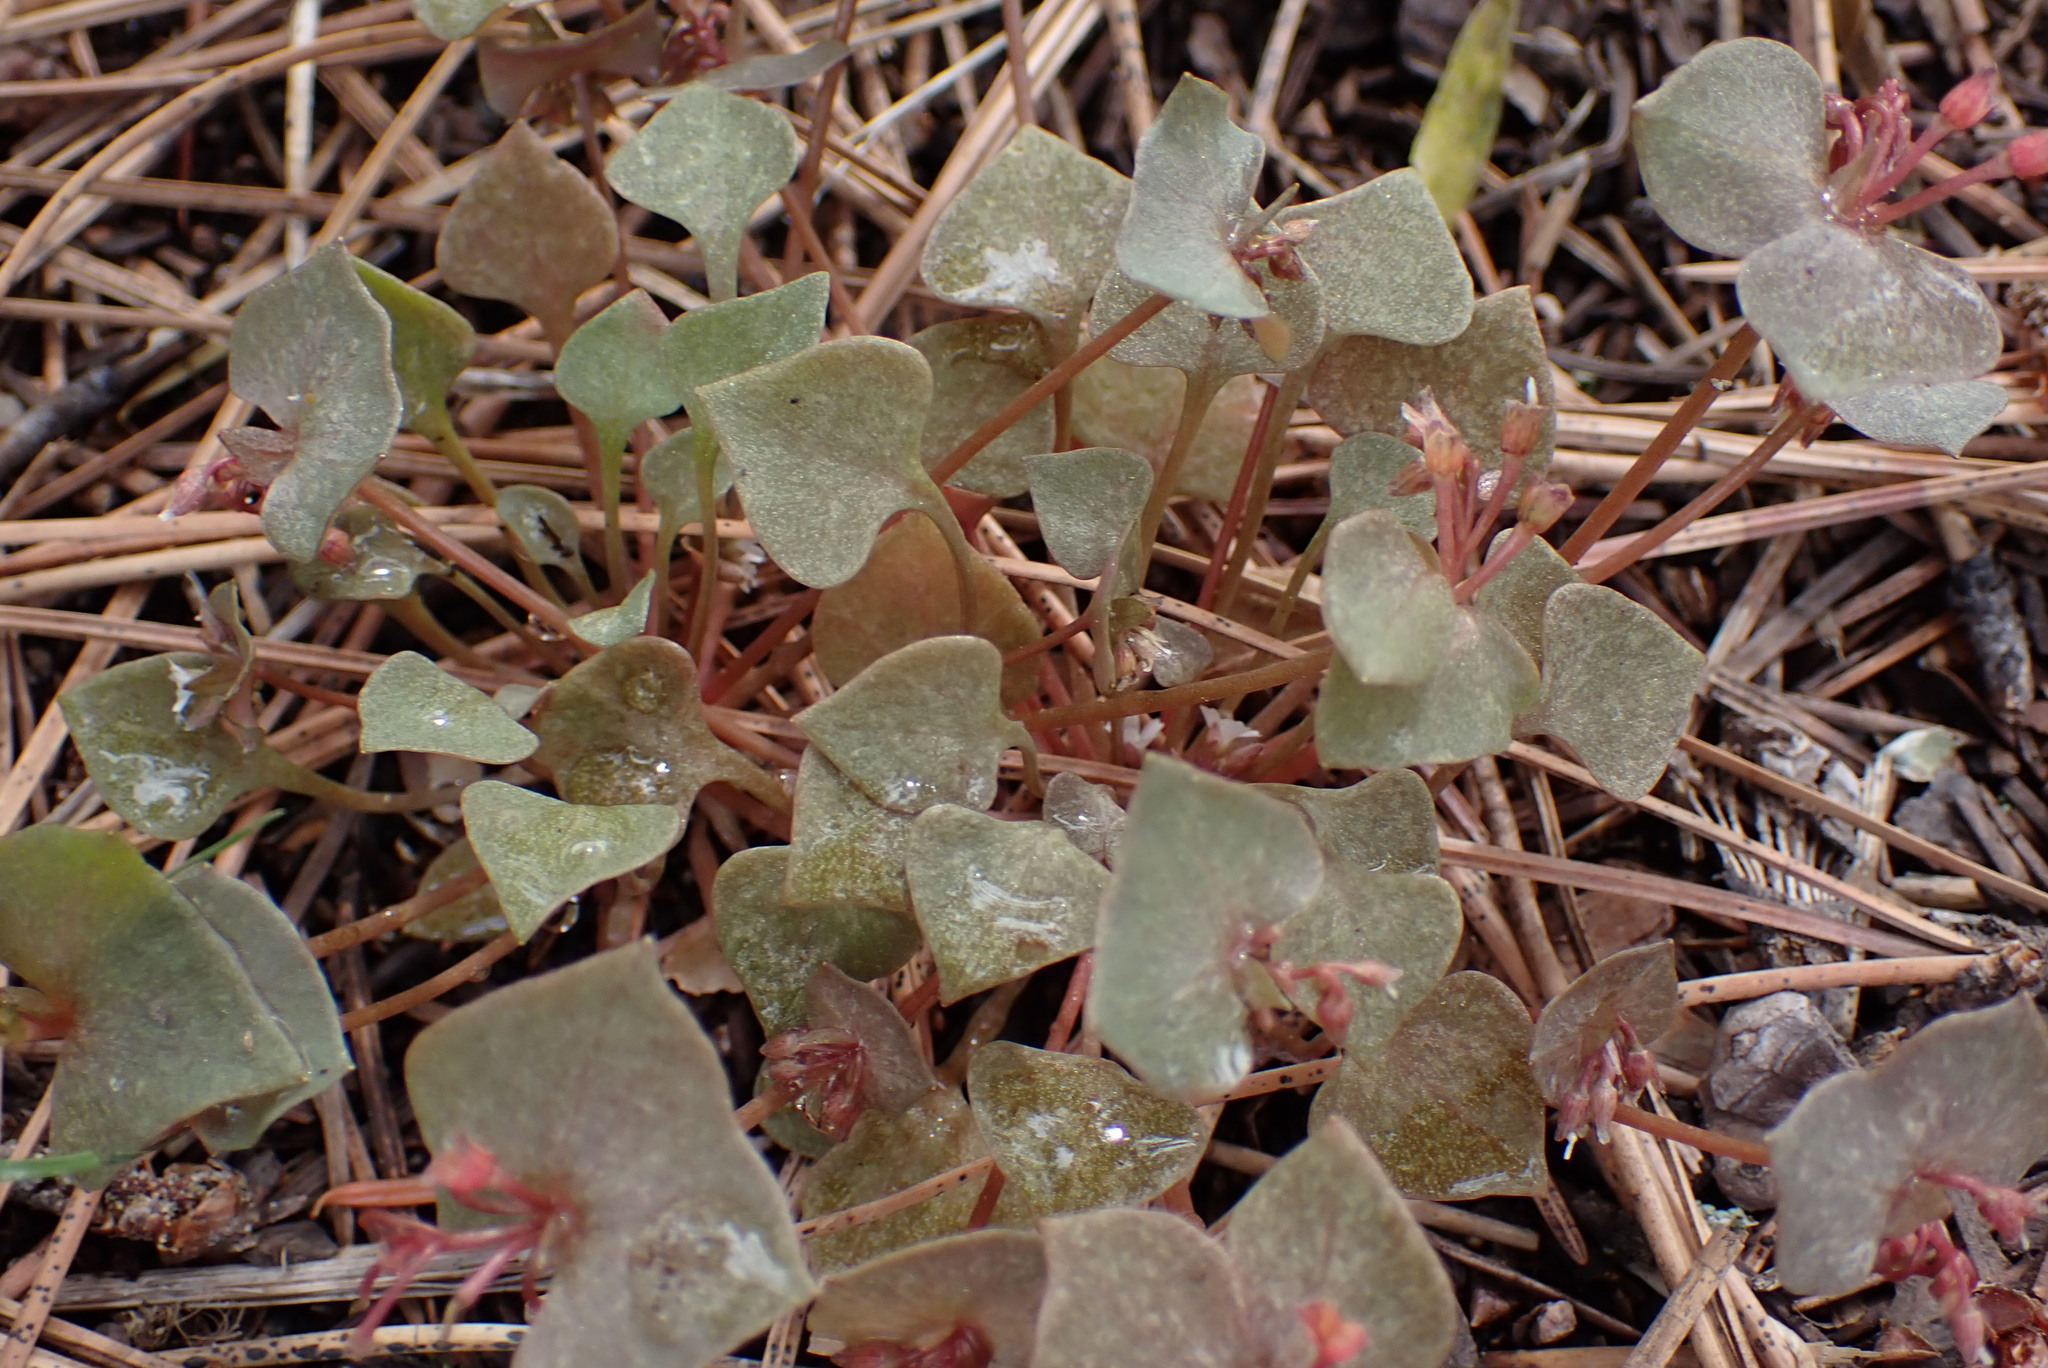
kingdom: Plantae
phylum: Tracheophyta
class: Magnoliopsida
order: Caryophyllales
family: Montiaceae
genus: Claytonia
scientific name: Claytonia rubra
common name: Erubescent miner's-lettuce
